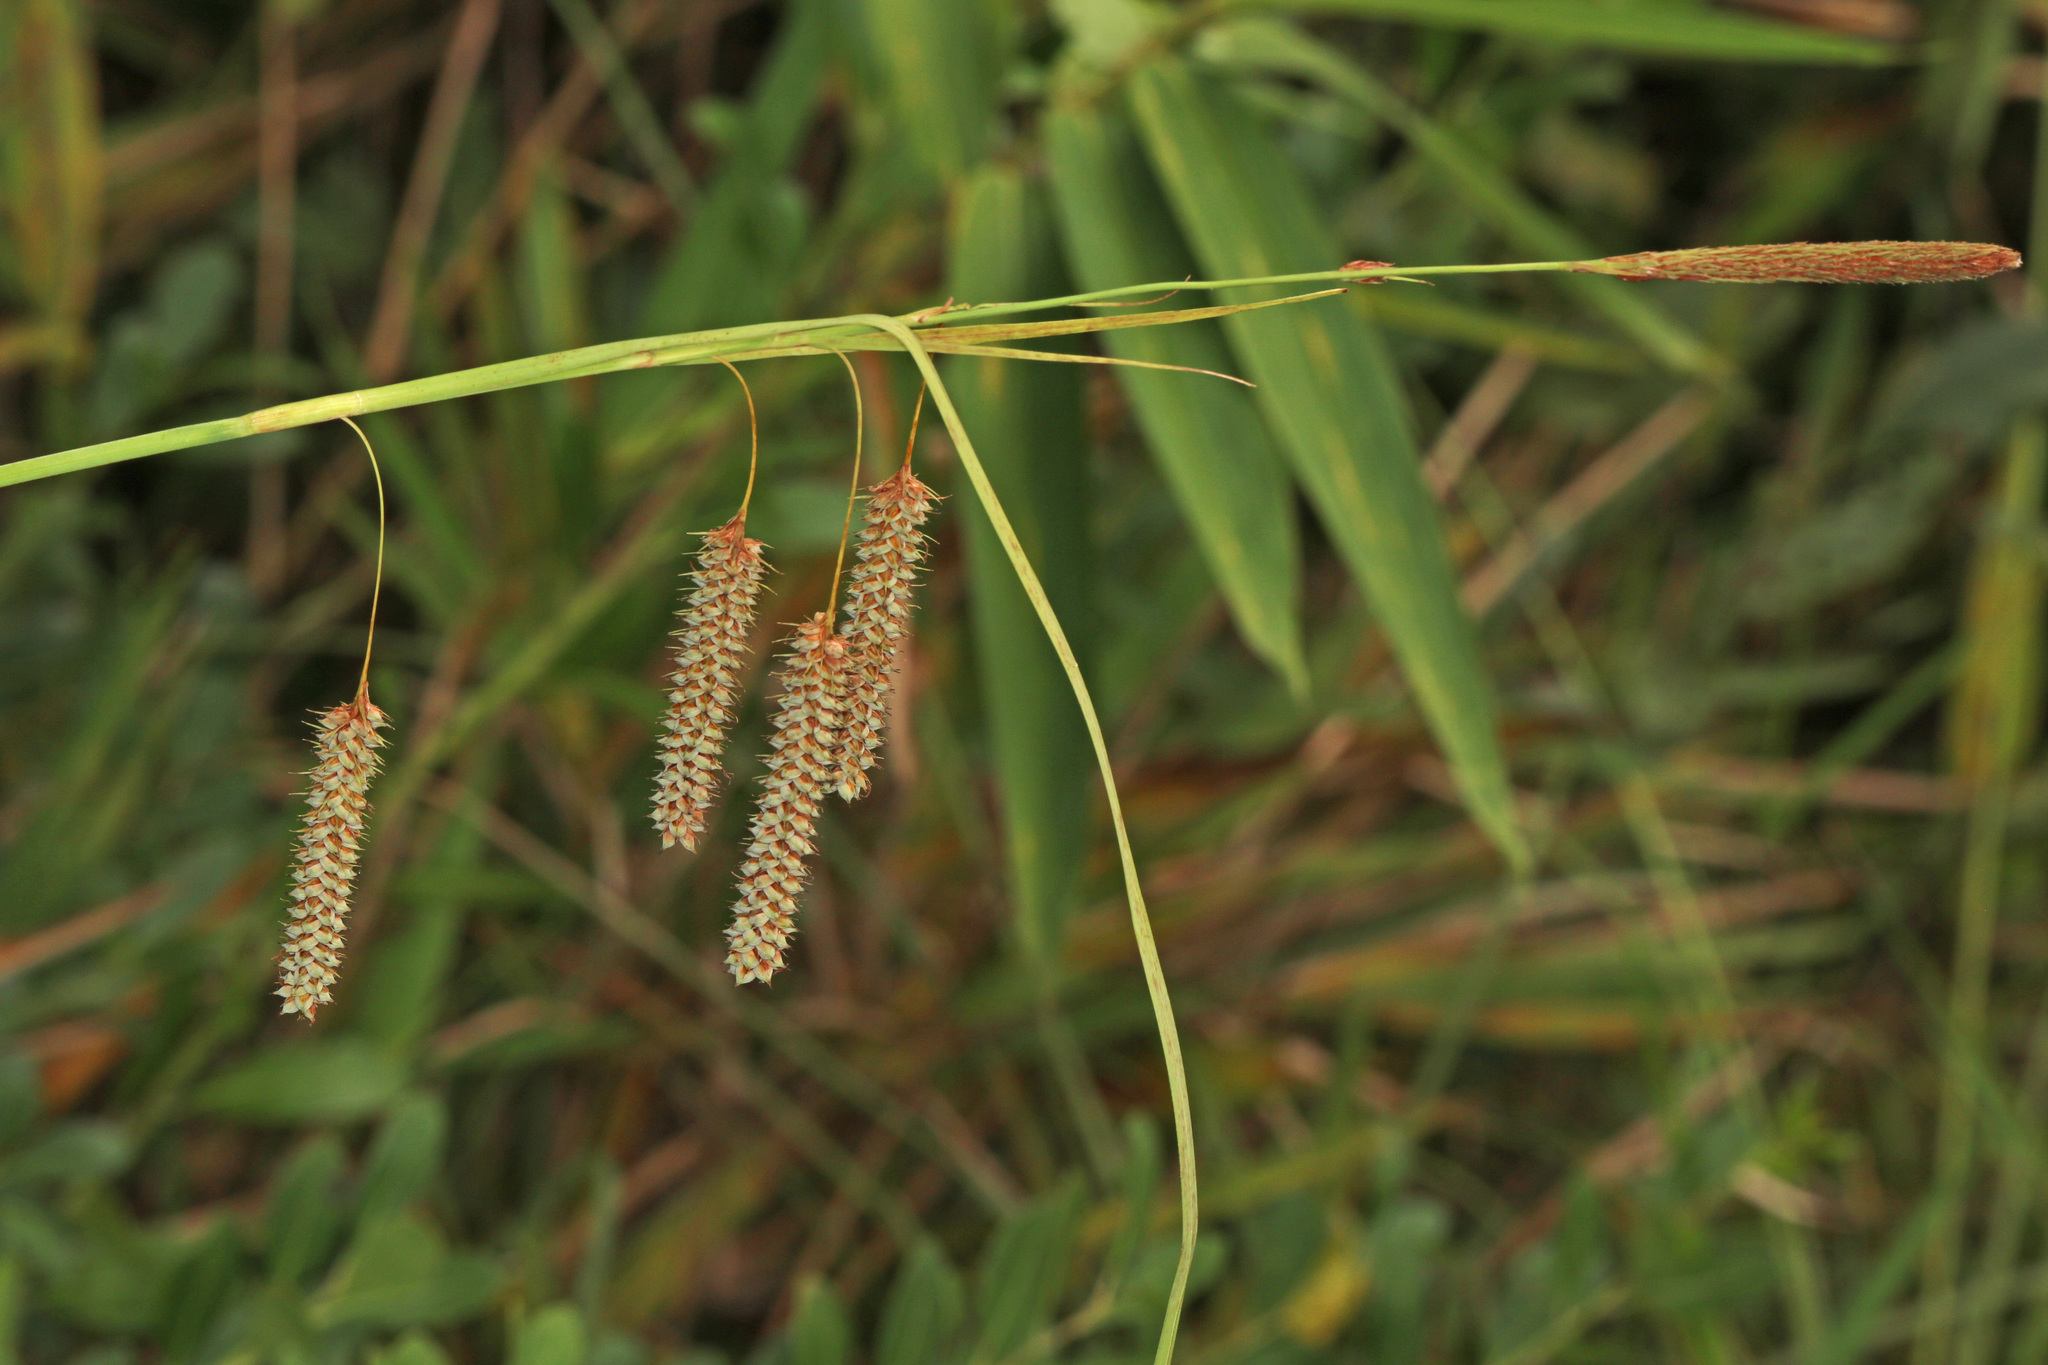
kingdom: Plantae
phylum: Tracheophyta
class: Liliopsida
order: Poales
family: Cyperaceae
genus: Carex
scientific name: Carex glaucescens
